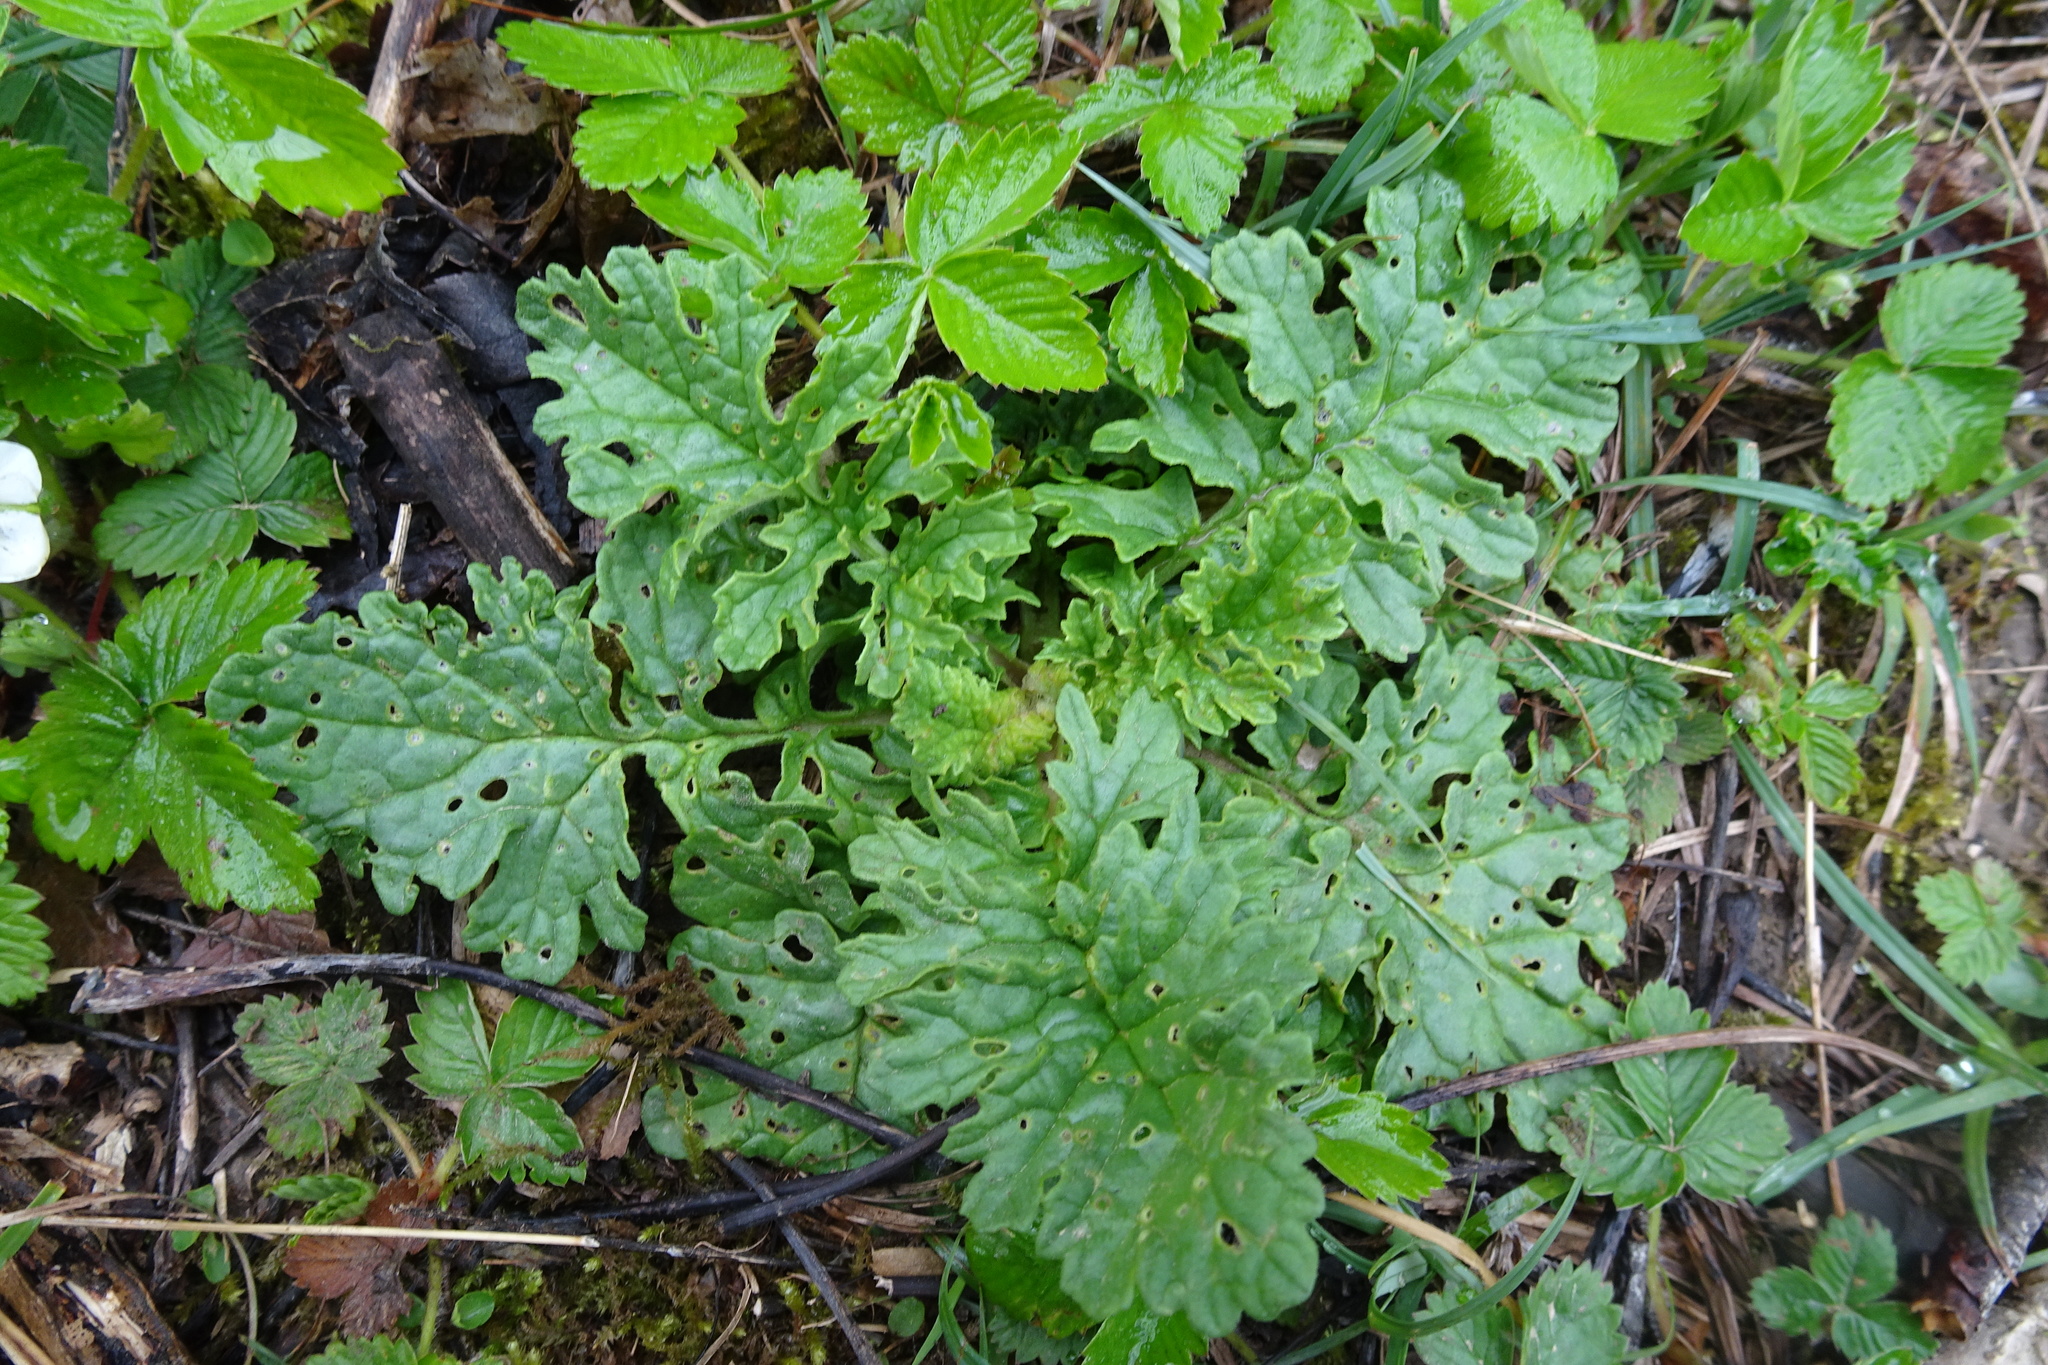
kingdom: Plantae
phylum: Tracheophyta
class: Magnoliopsida
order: Asterales
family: Asteraceae
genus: Jacobaea
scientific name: Jacobaea vulgaris
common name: Stinking willie
